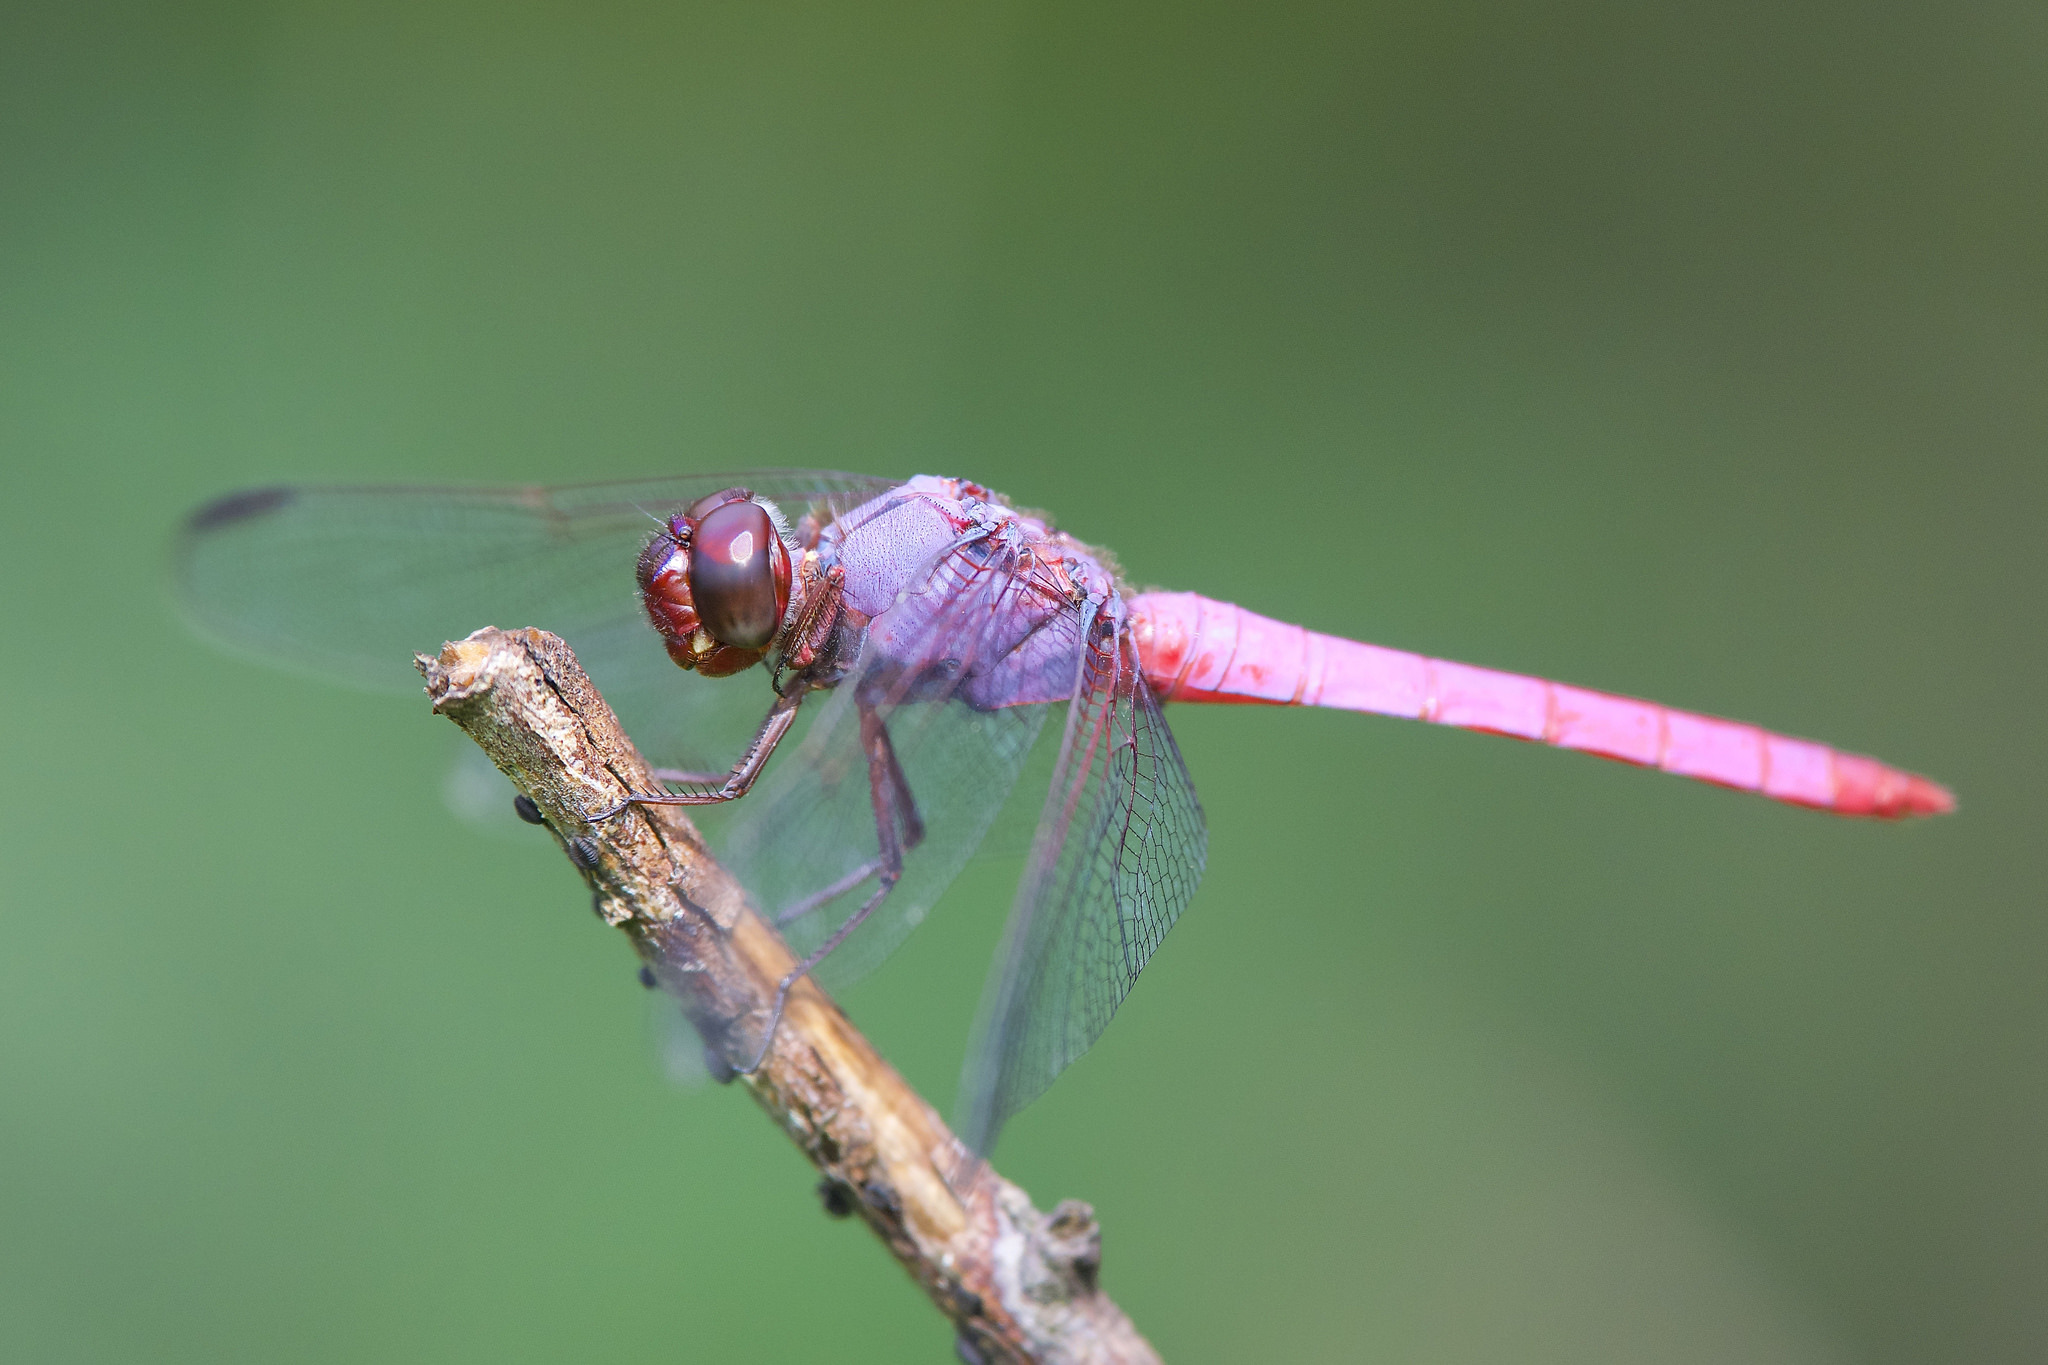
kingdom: Animalia
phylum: Arthropoda
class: Insecta
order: Odonata
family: Libellulidae
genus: Orthemis
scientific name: Orthemis ferruginea
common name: Roseate skimmer
